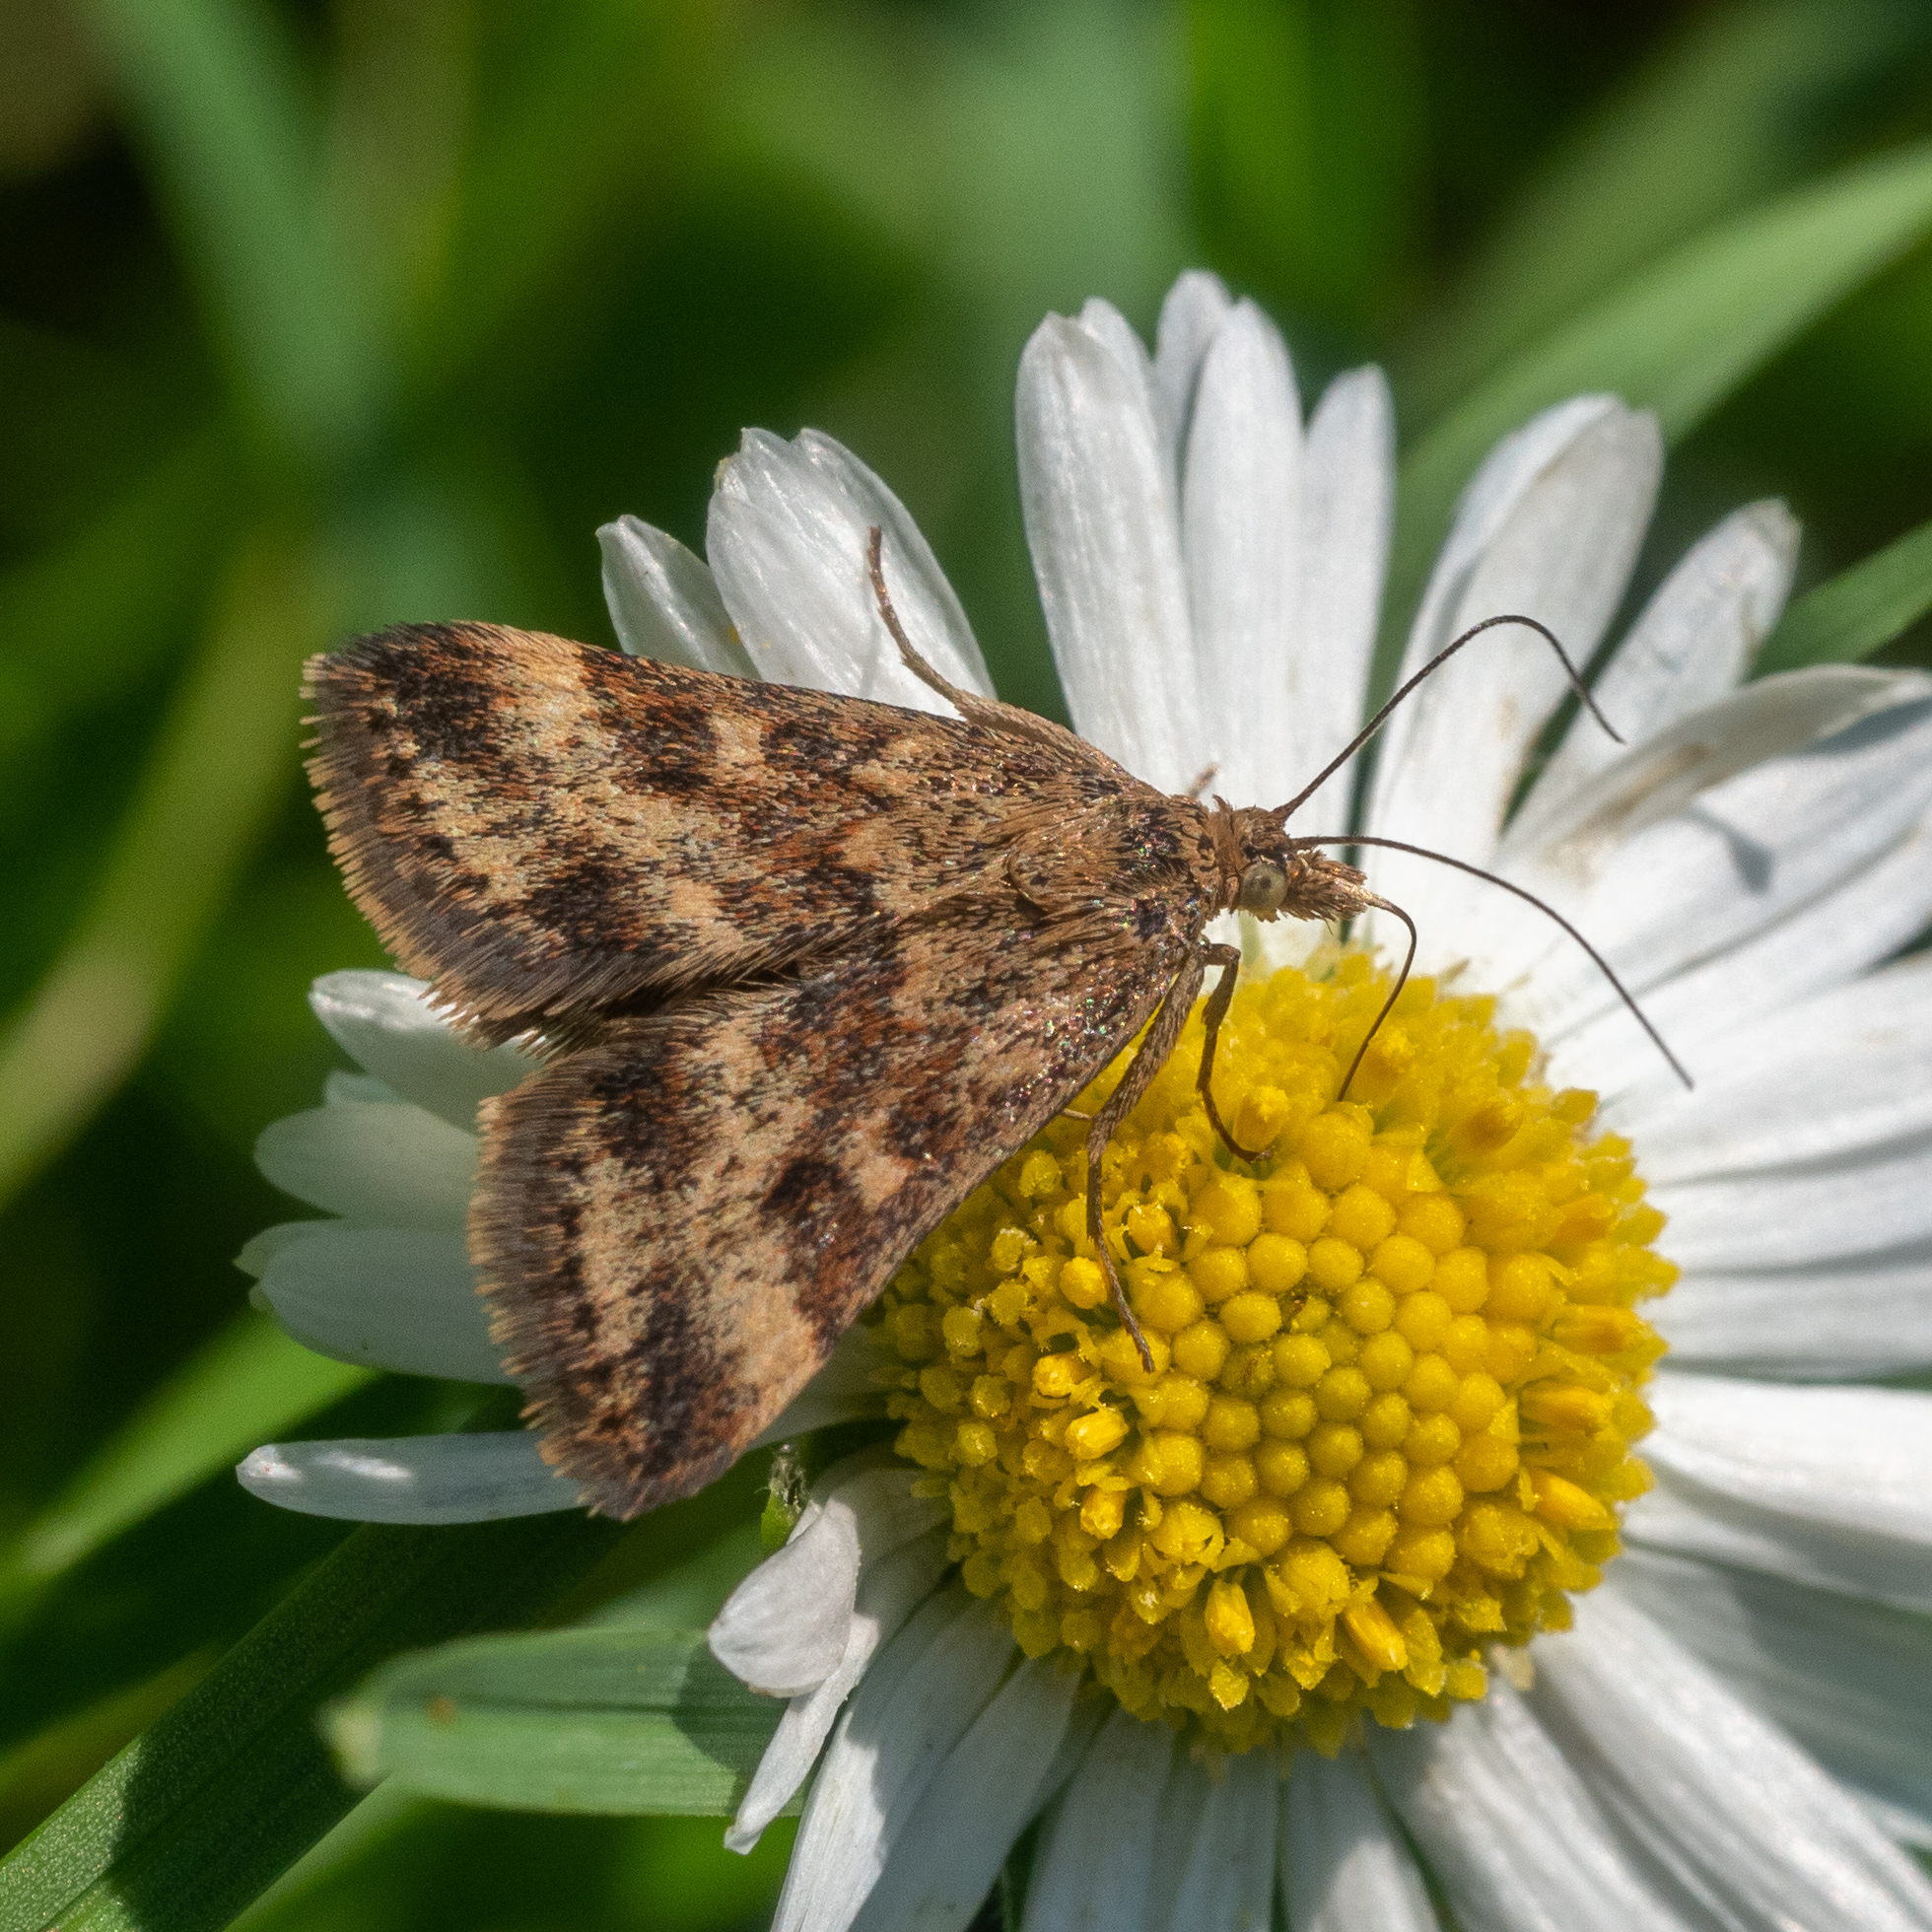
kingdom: Animalia
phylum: Arthropoda
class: Insecta
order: Lepidoptera
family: Crambidae
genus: Pyrausta
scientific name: Pyrausta despicata
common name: Straw-barred pearl
